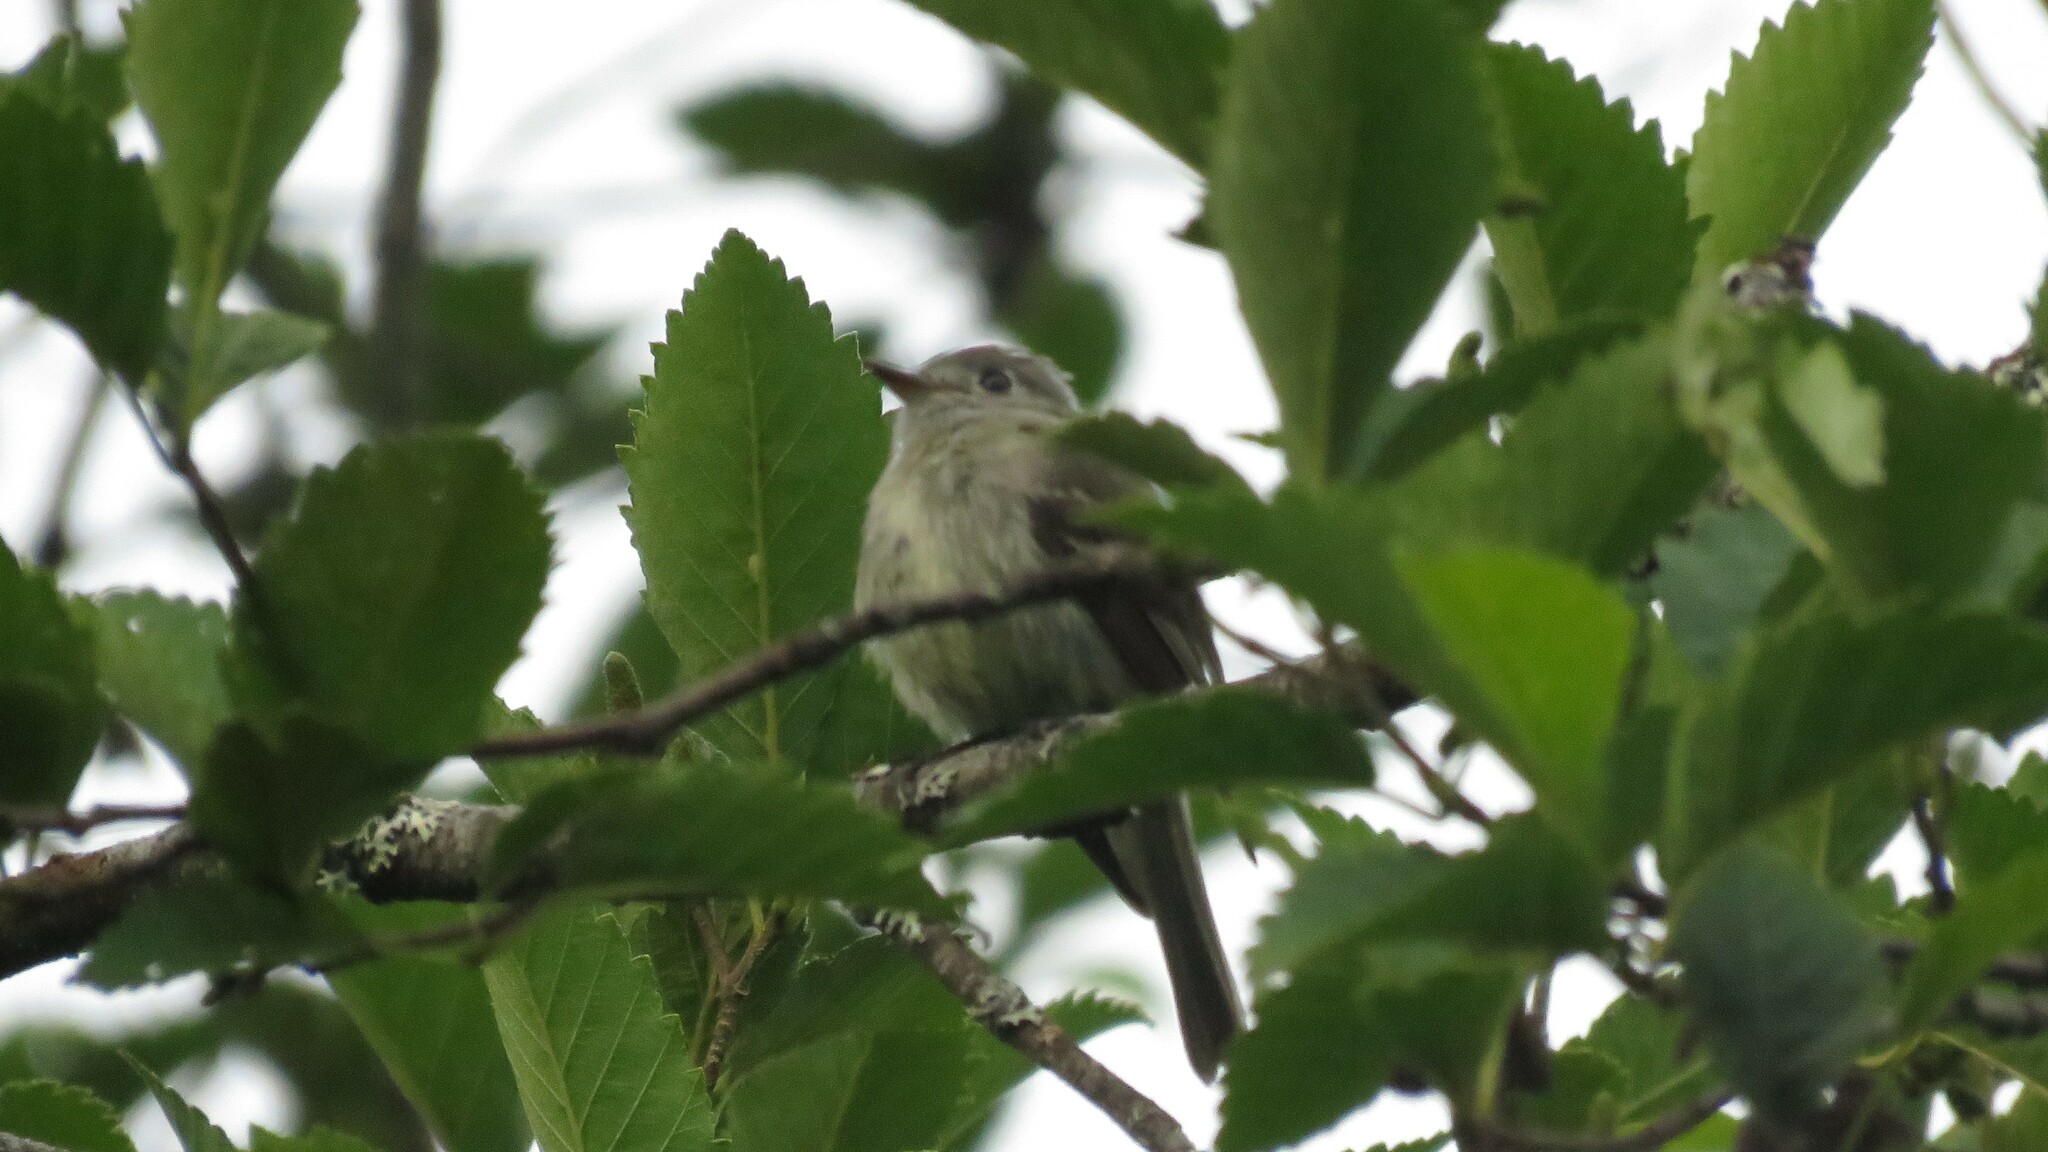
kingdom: Animalia
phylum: Chordata
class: Aves
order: Passeriformes
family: Tyrannidae
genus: Empidonax
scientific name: Empidonax hammondii
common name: Hammond's flycatcher
